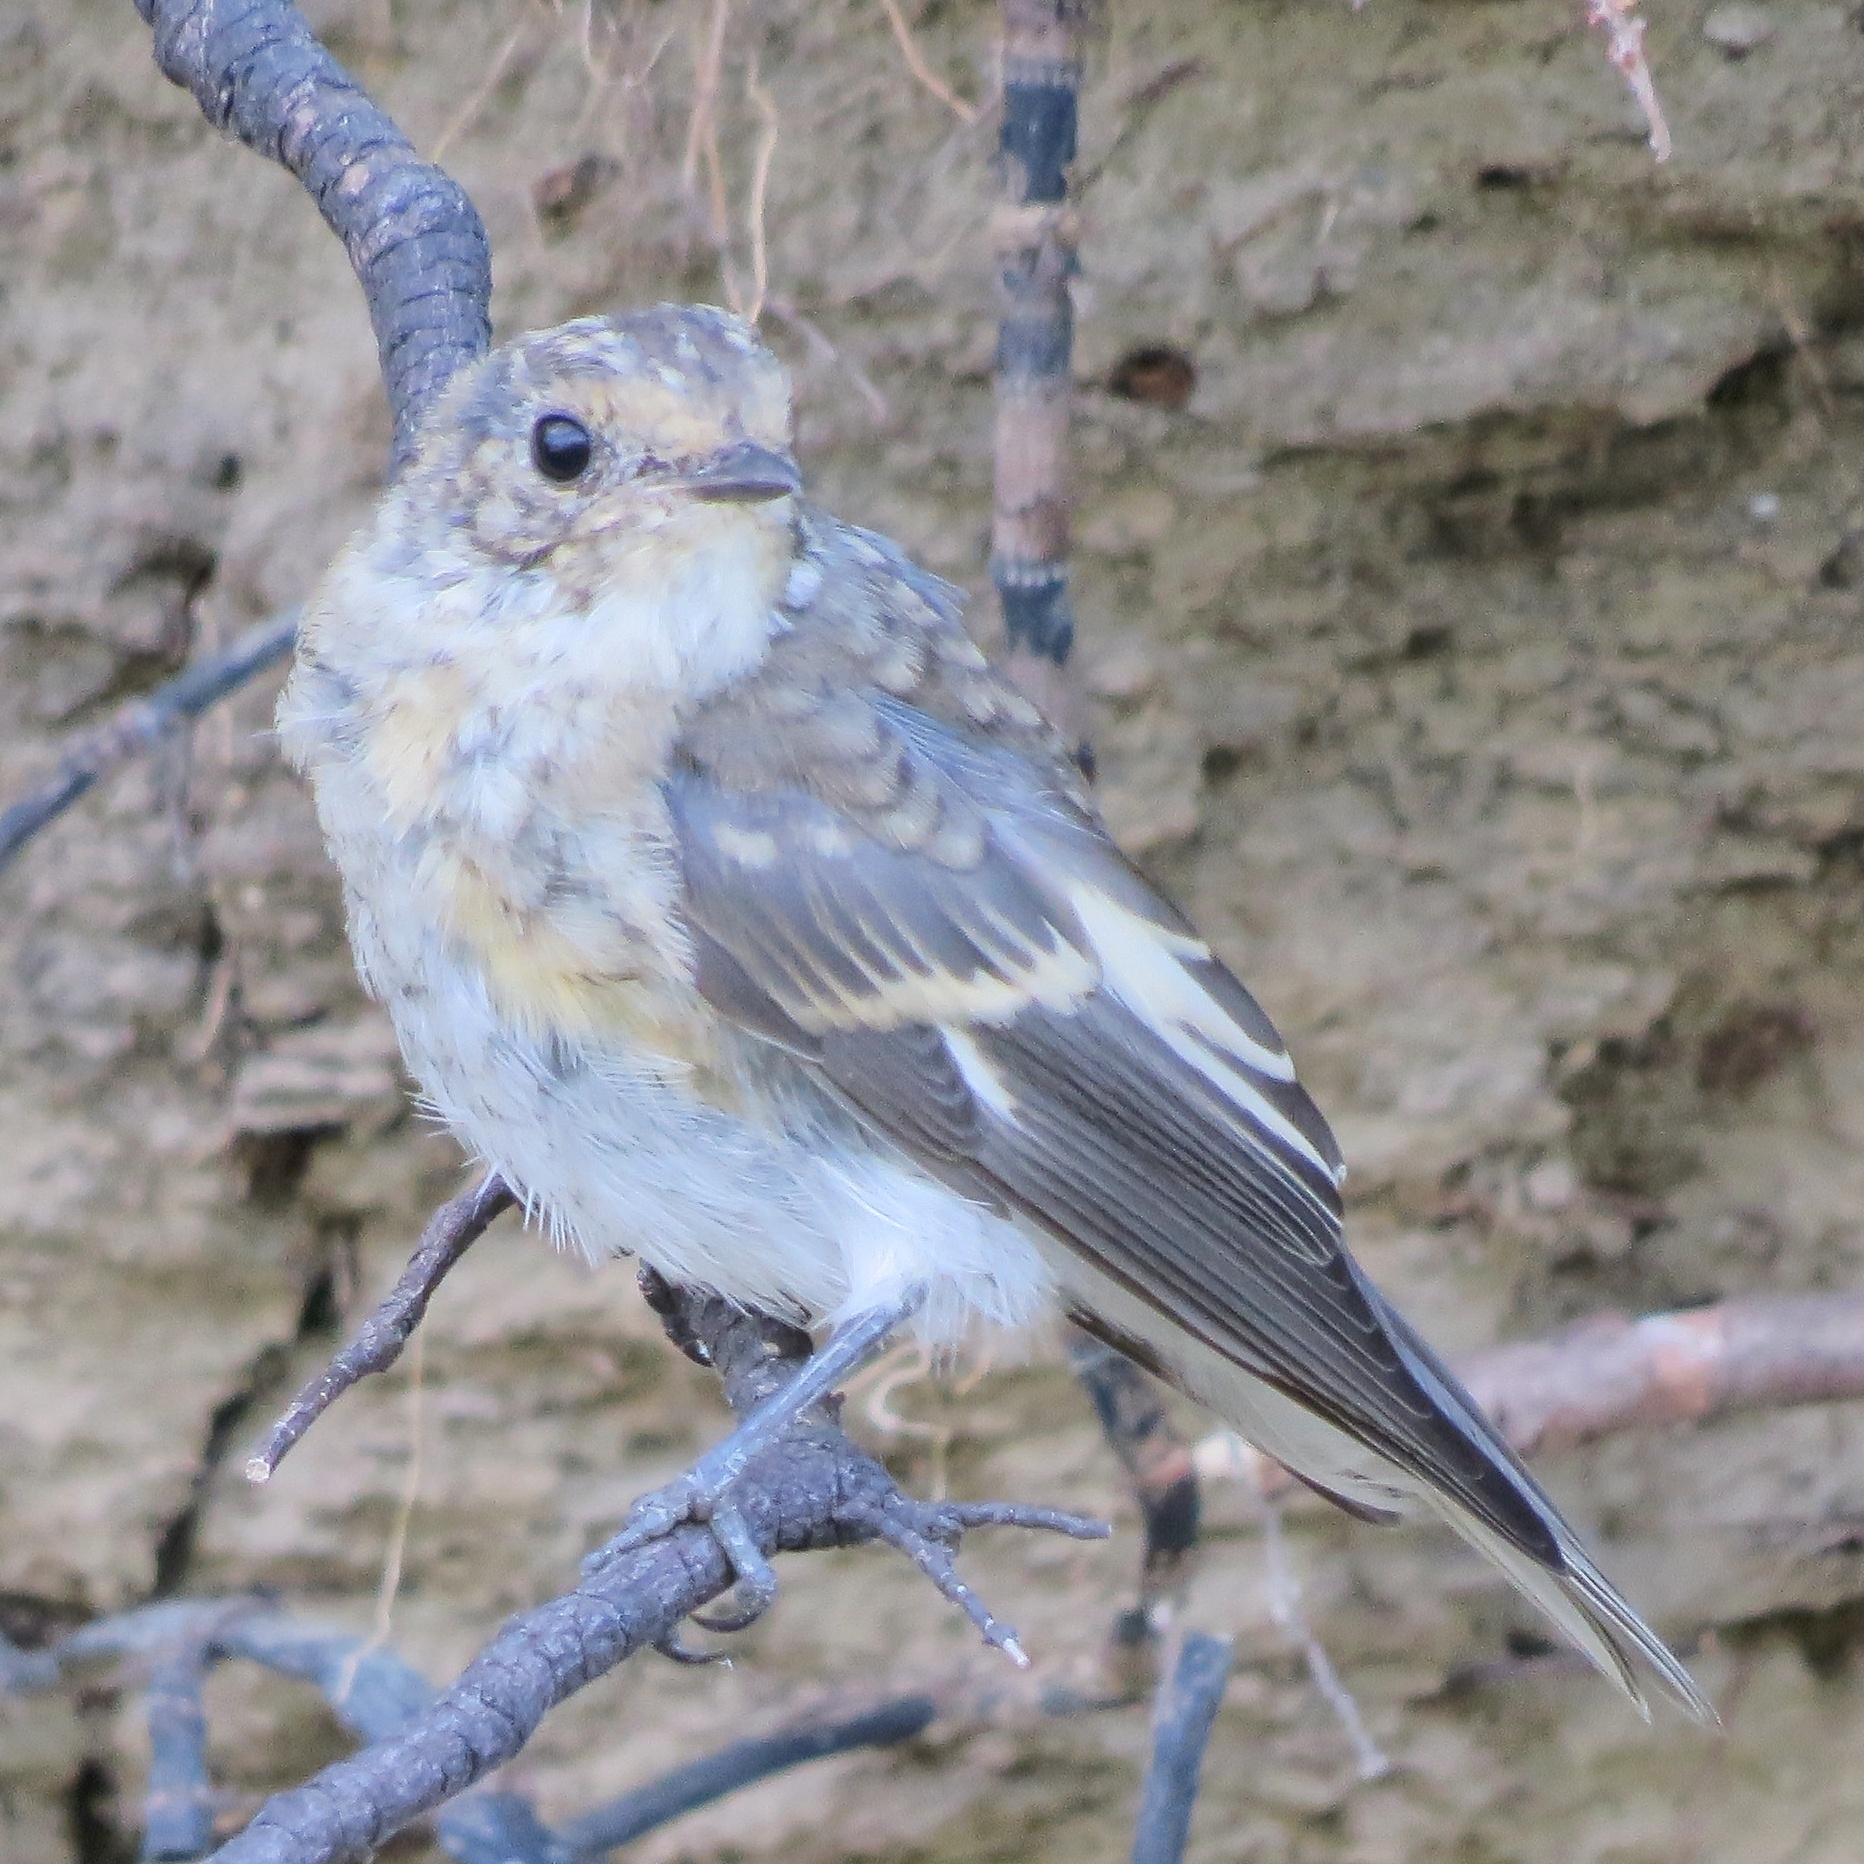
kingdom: Animalia
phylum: Chordata
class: Aves
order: Passeriformes
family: Muscicapidae
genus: Ficedula
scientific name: Ficedula hypoleuca
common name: European pied flycatcher
